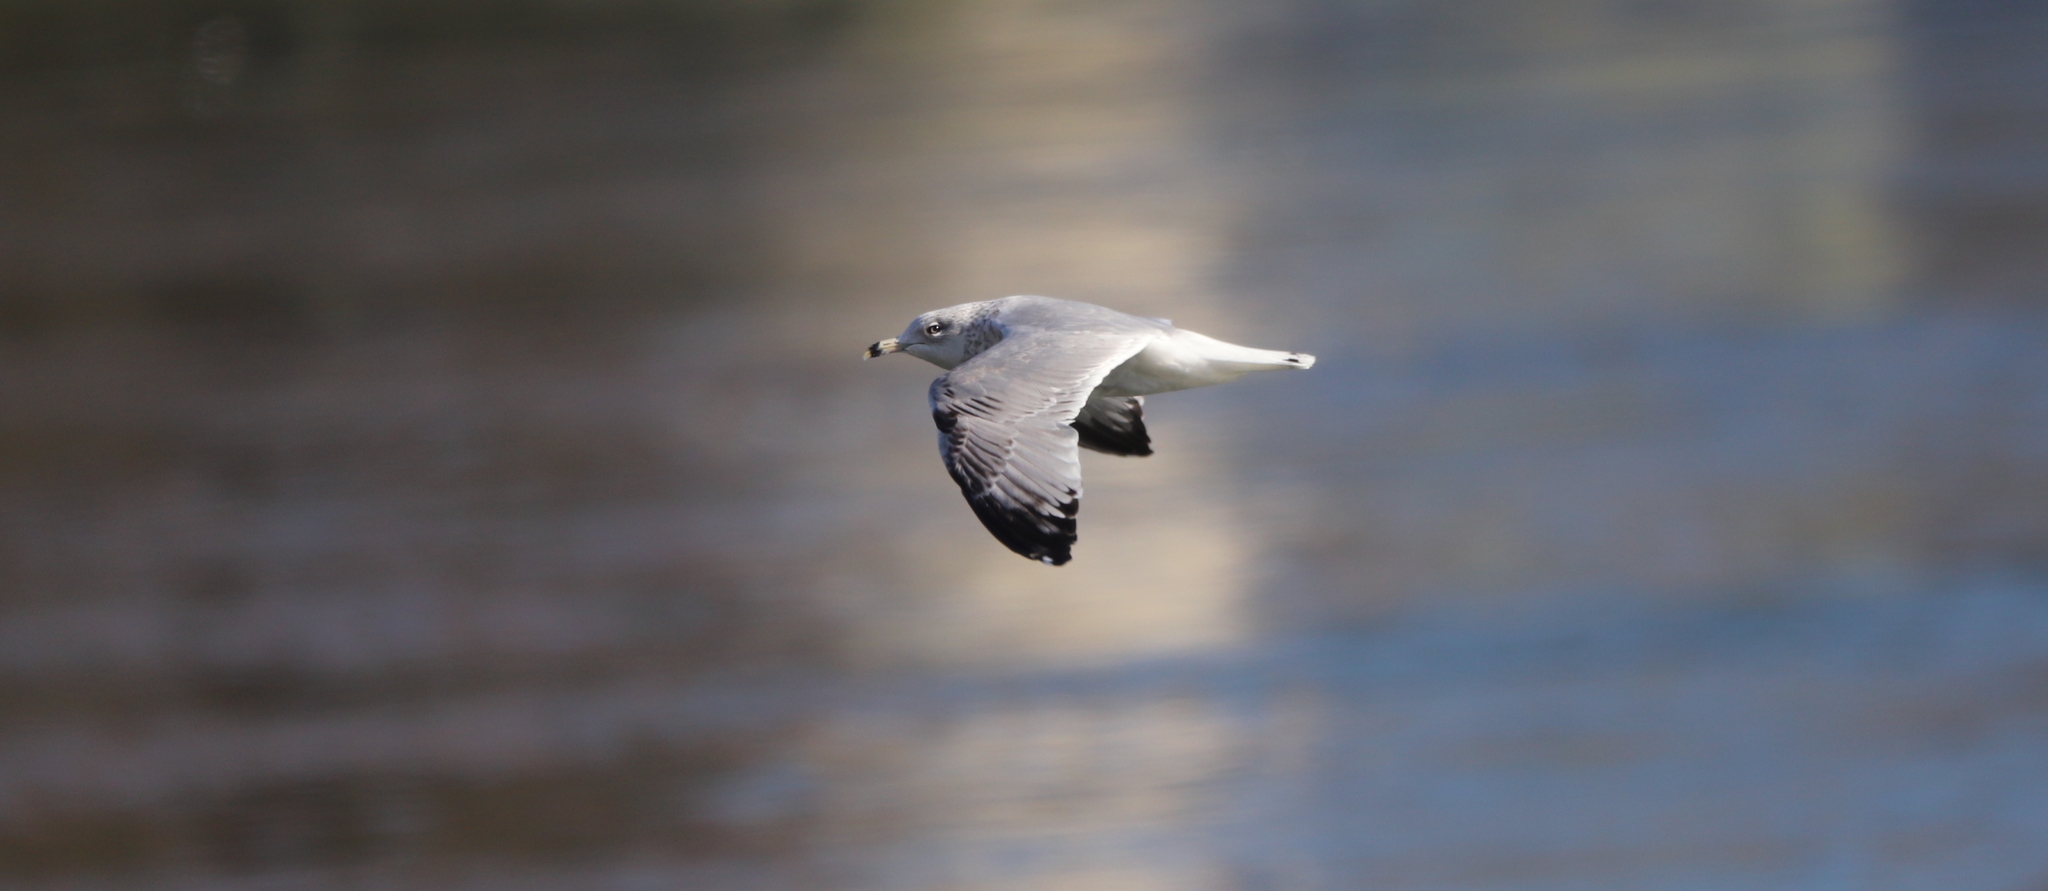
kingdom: Animalia
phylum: Chordata
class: Aves
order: Charadriiformes
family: Laridae
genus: Larus
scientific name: Larus delawarensis
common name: Ring-billed gull
